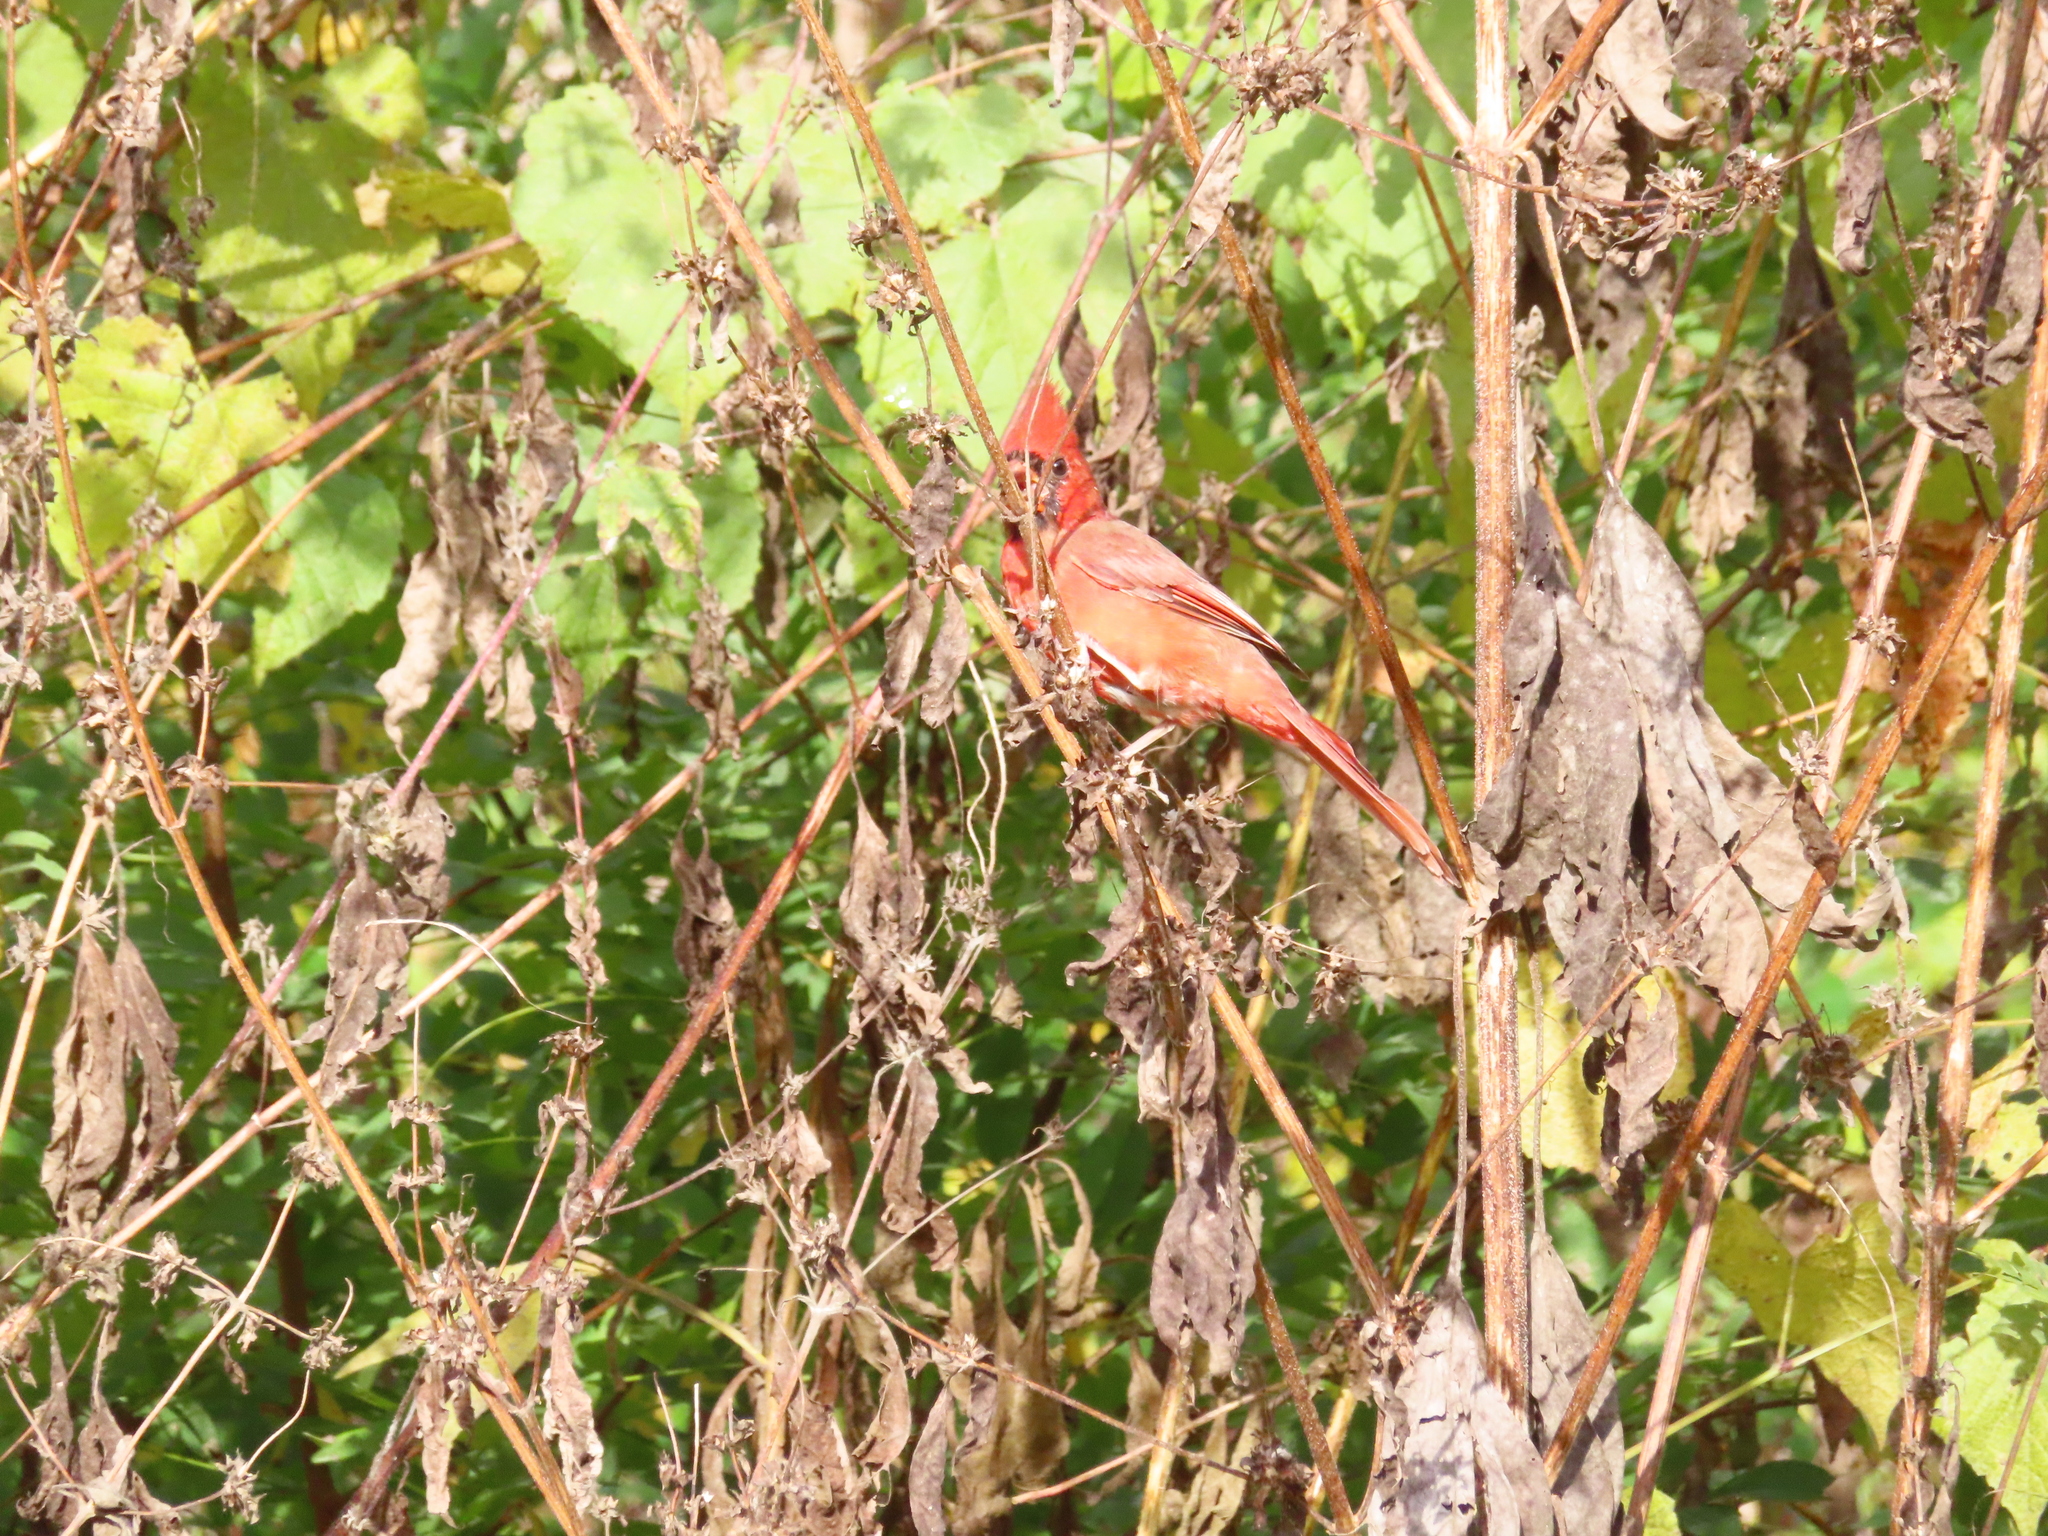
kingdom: Animalia
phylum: Chordata
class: Aves
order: Passeriformes
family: Cardinalidae
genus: Cardinalis
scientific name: Cardinalis cardinalis
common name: Northern cardinal
